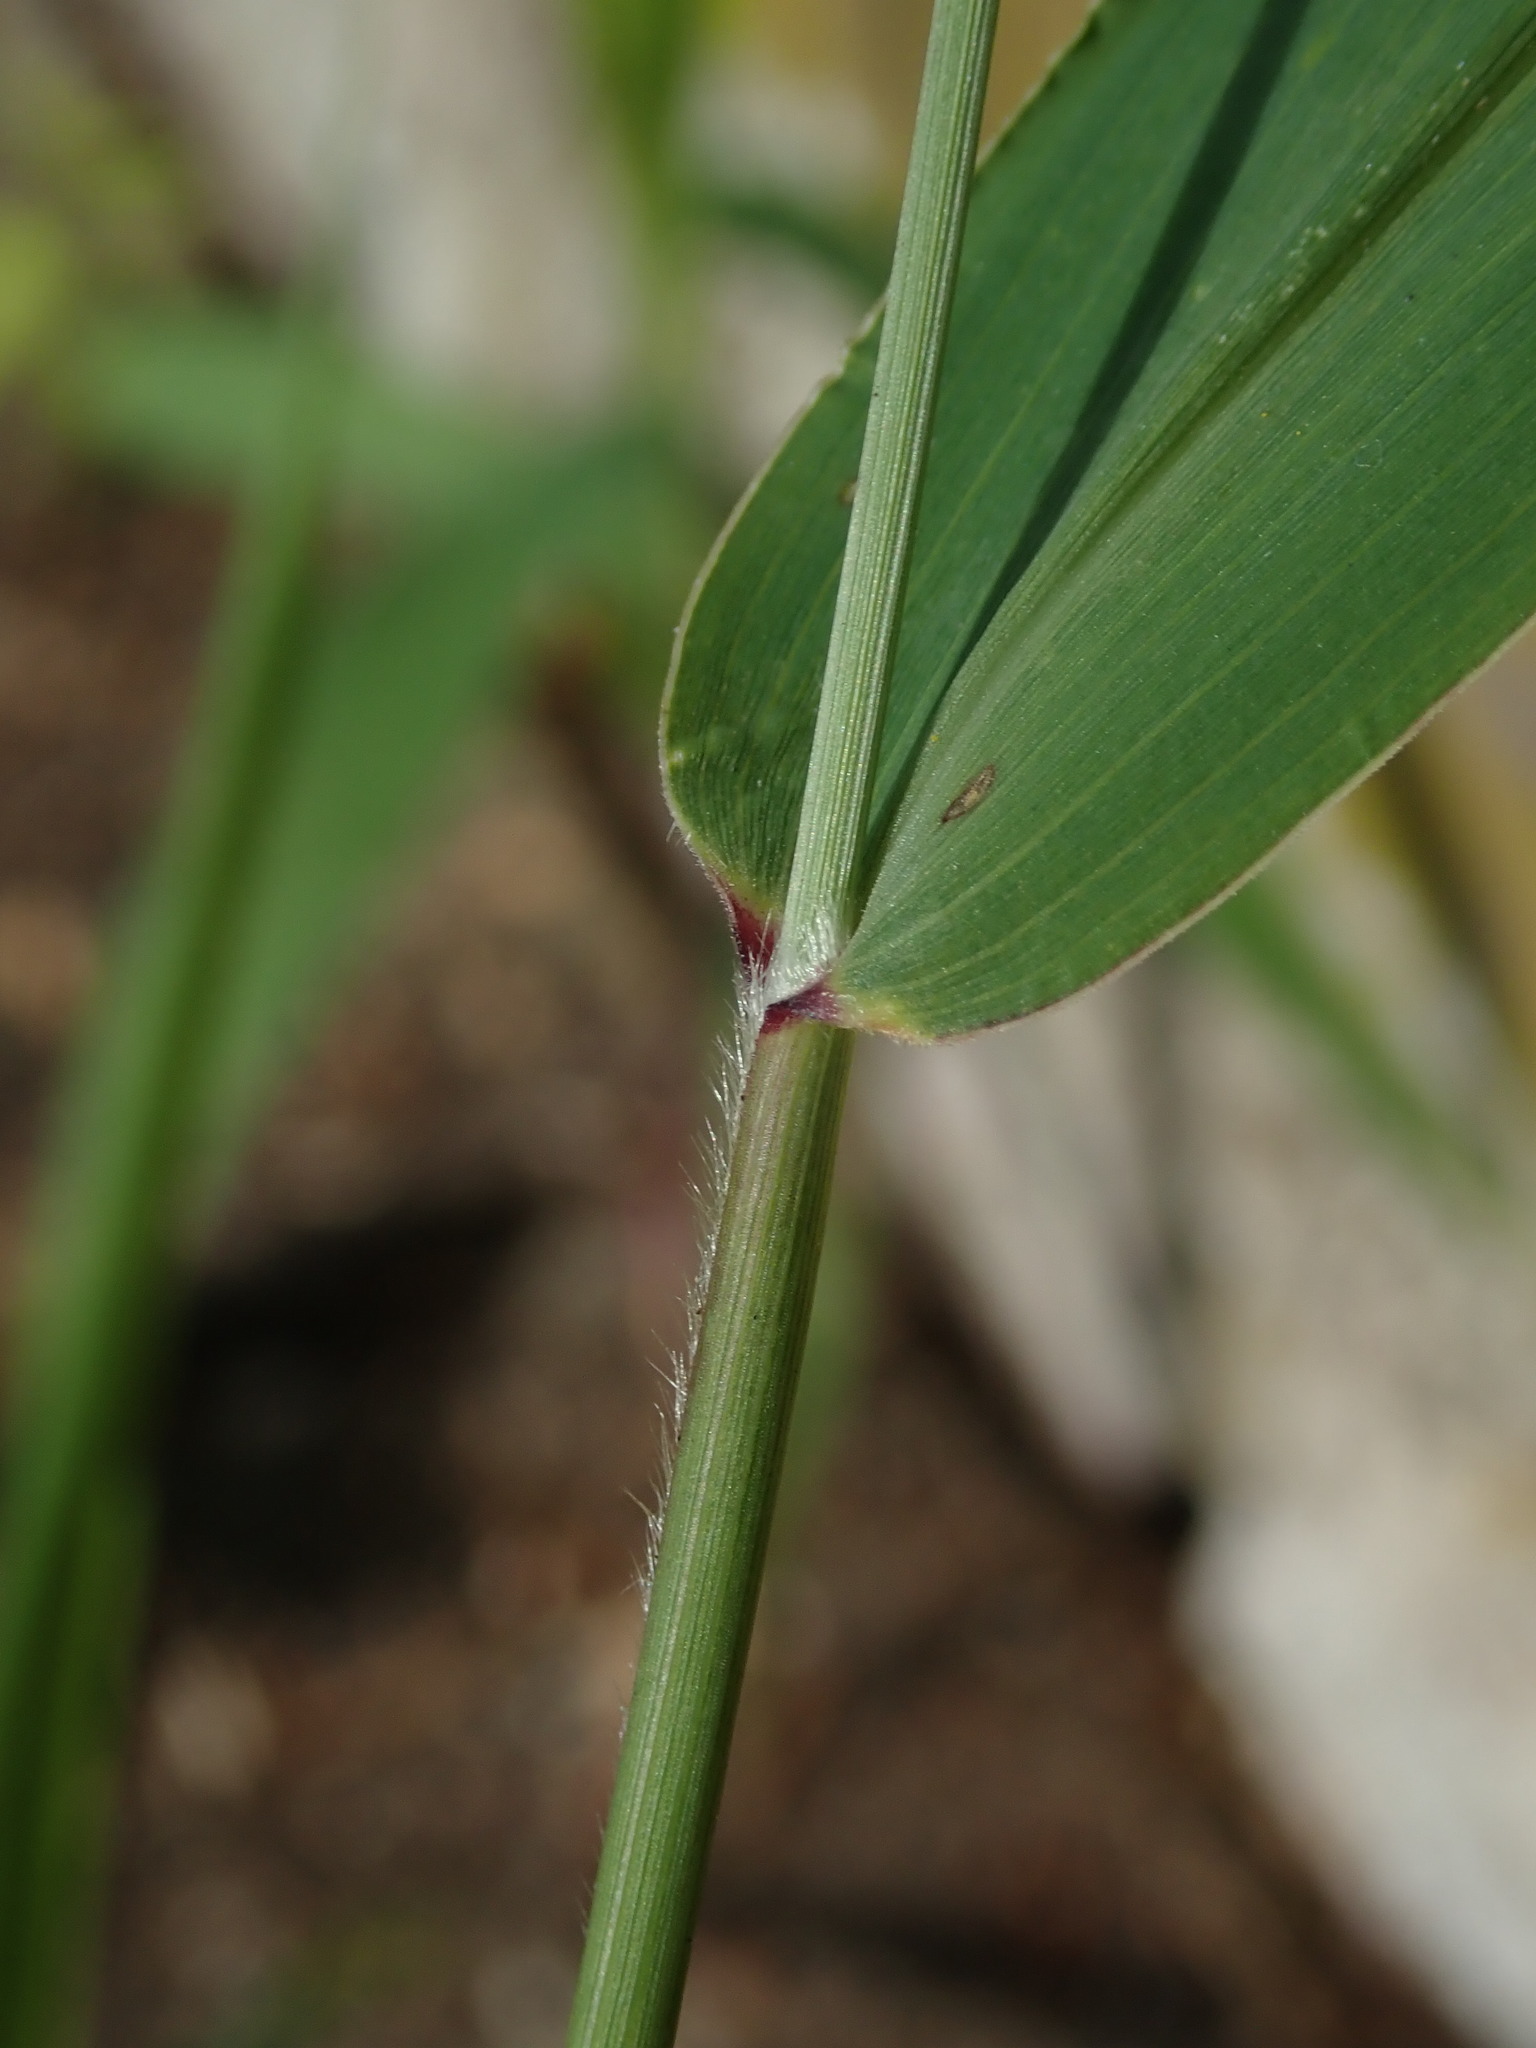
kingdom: Plantae
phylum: Tracheophyta
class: Liliopsida
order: Poales
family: Poaceae
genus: Setaria
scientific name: Setaria viridis
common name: Green bristlegrass
